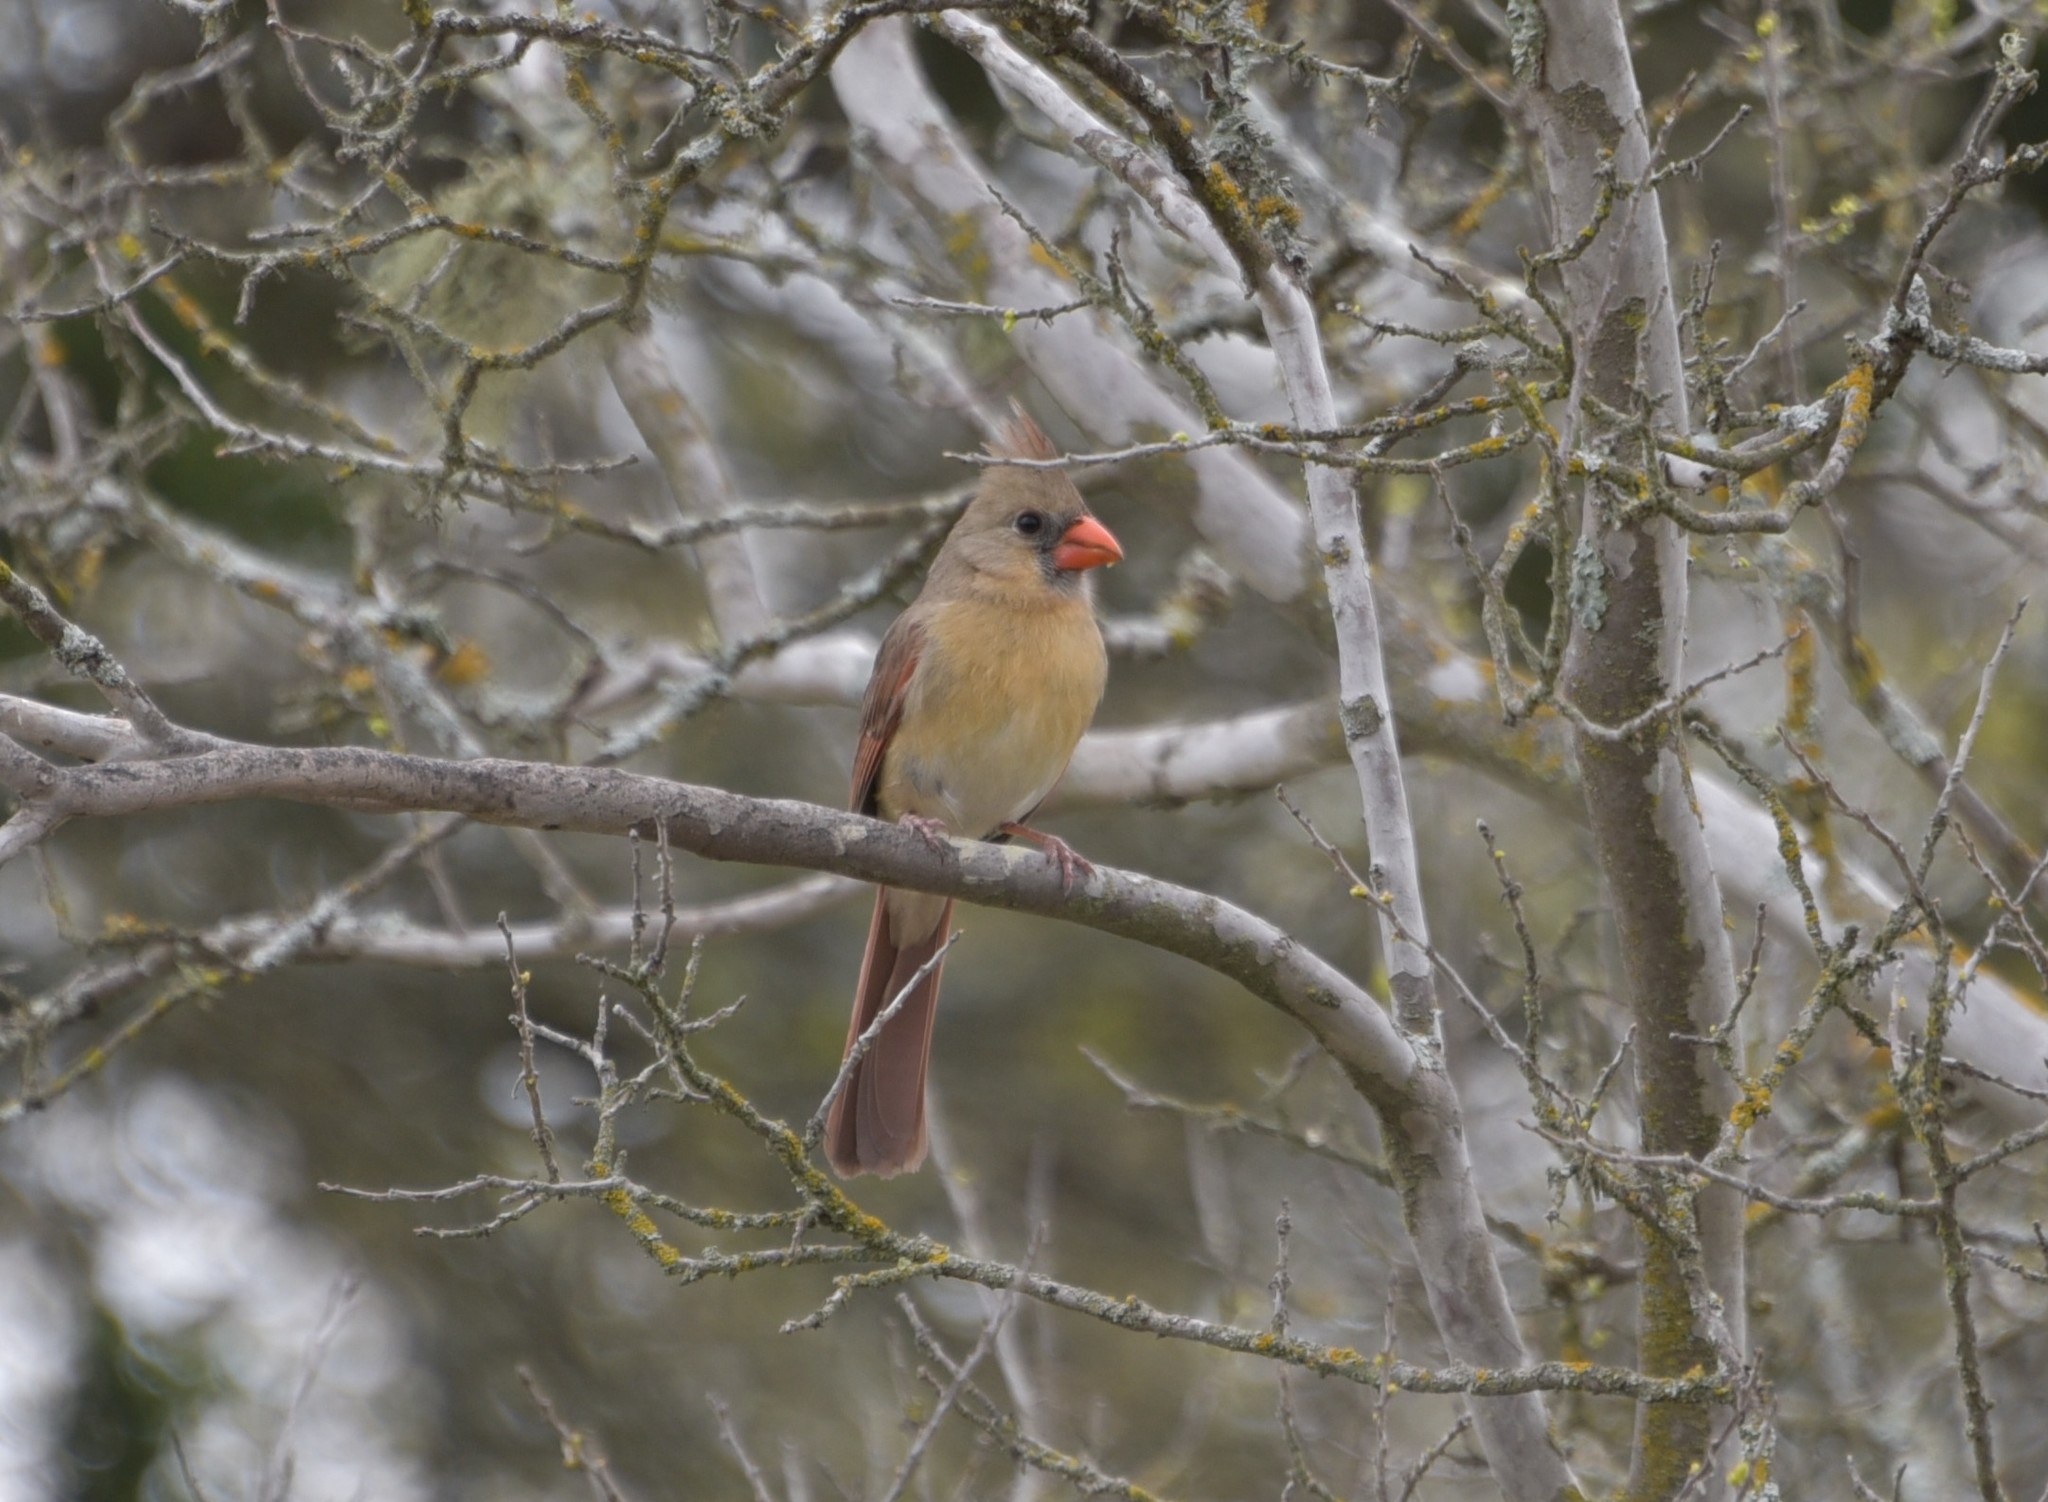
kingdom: Animalia
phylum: Chordata
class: Aves
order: Passeriformes
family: Cardinalidae
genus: Cardinalis
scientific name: Cardinalis cardinalis
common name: Northern cardinal
